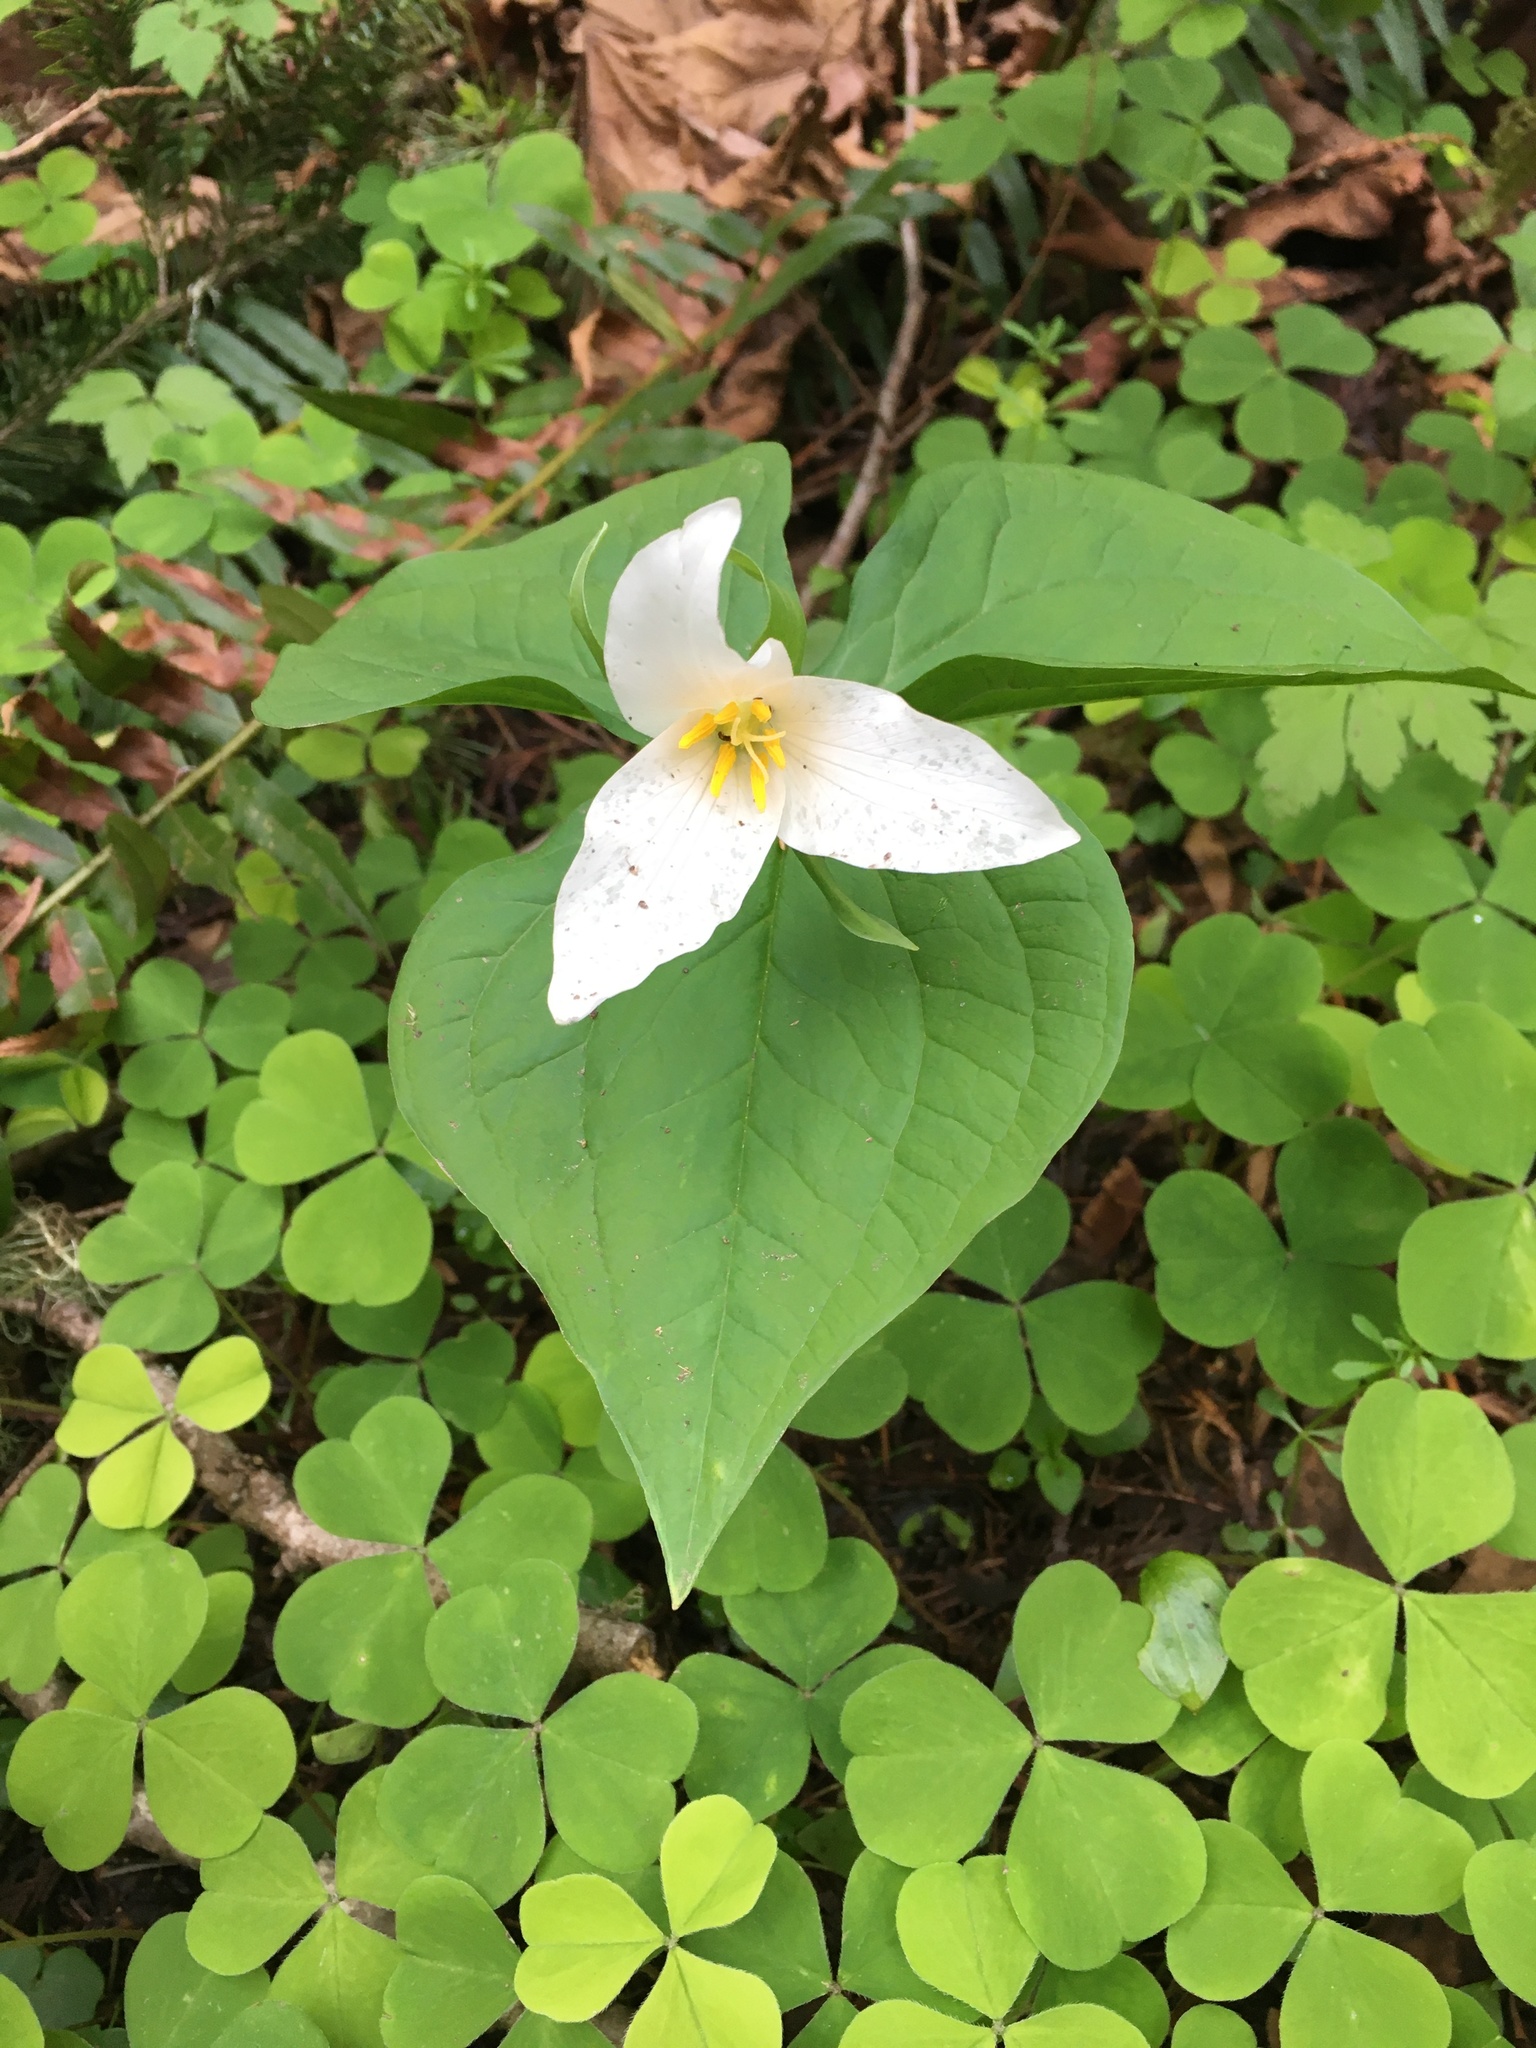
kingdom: Plantae
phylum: Tracheophyta
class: Liliopsida
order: Liliales
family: Melanthiaceae
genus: Trillium
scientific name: Trillium ovatum
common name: Pacific trillium
